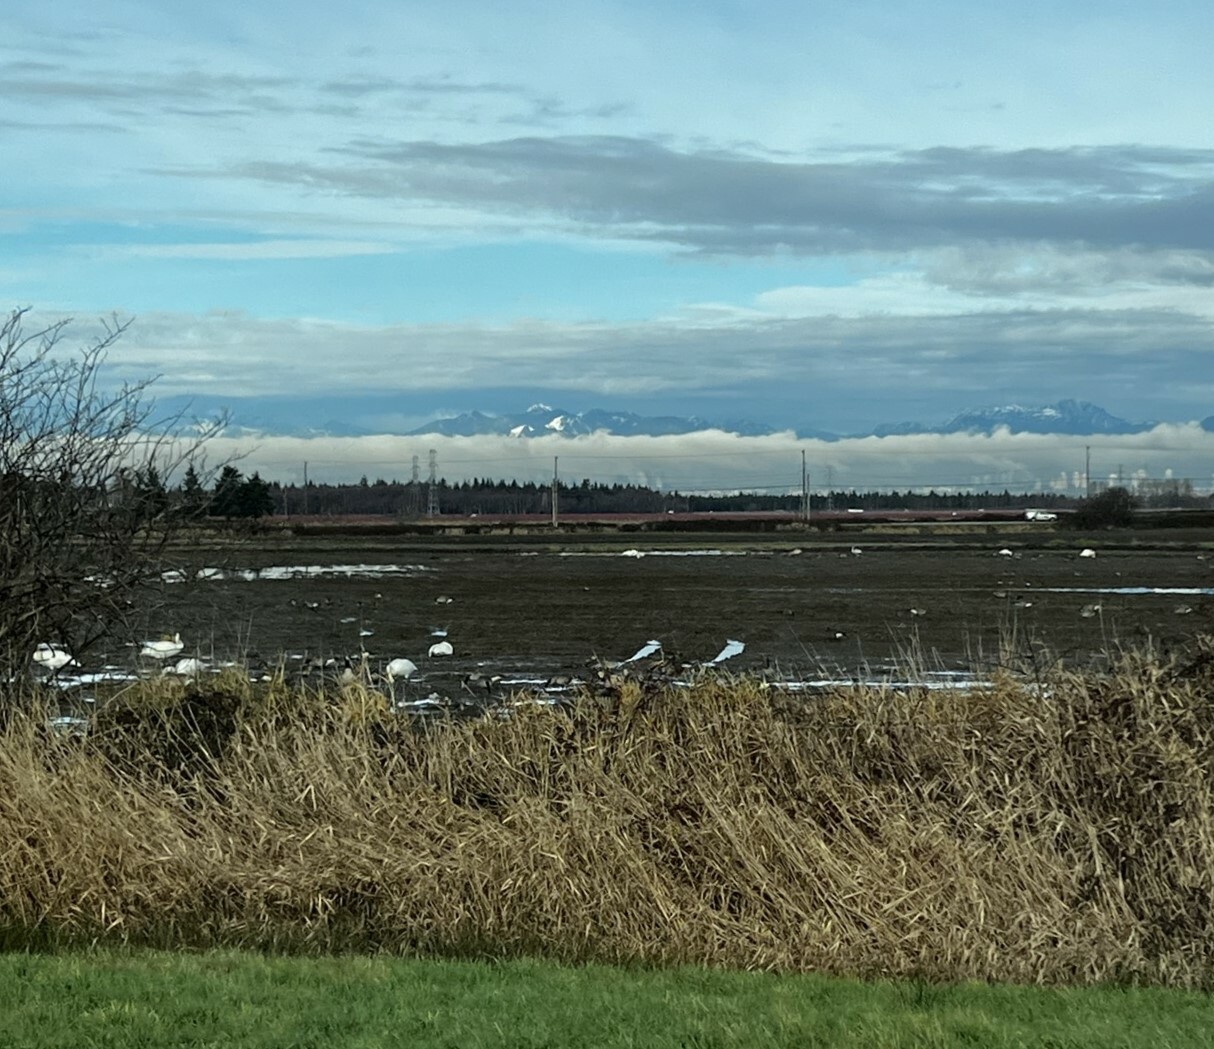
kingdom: Animalia
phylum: Chordata
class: Aves
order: Anseriformes
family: Anatidae
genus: Cygnus
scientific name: Cygnus buccinator
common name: Trumpeter swan
